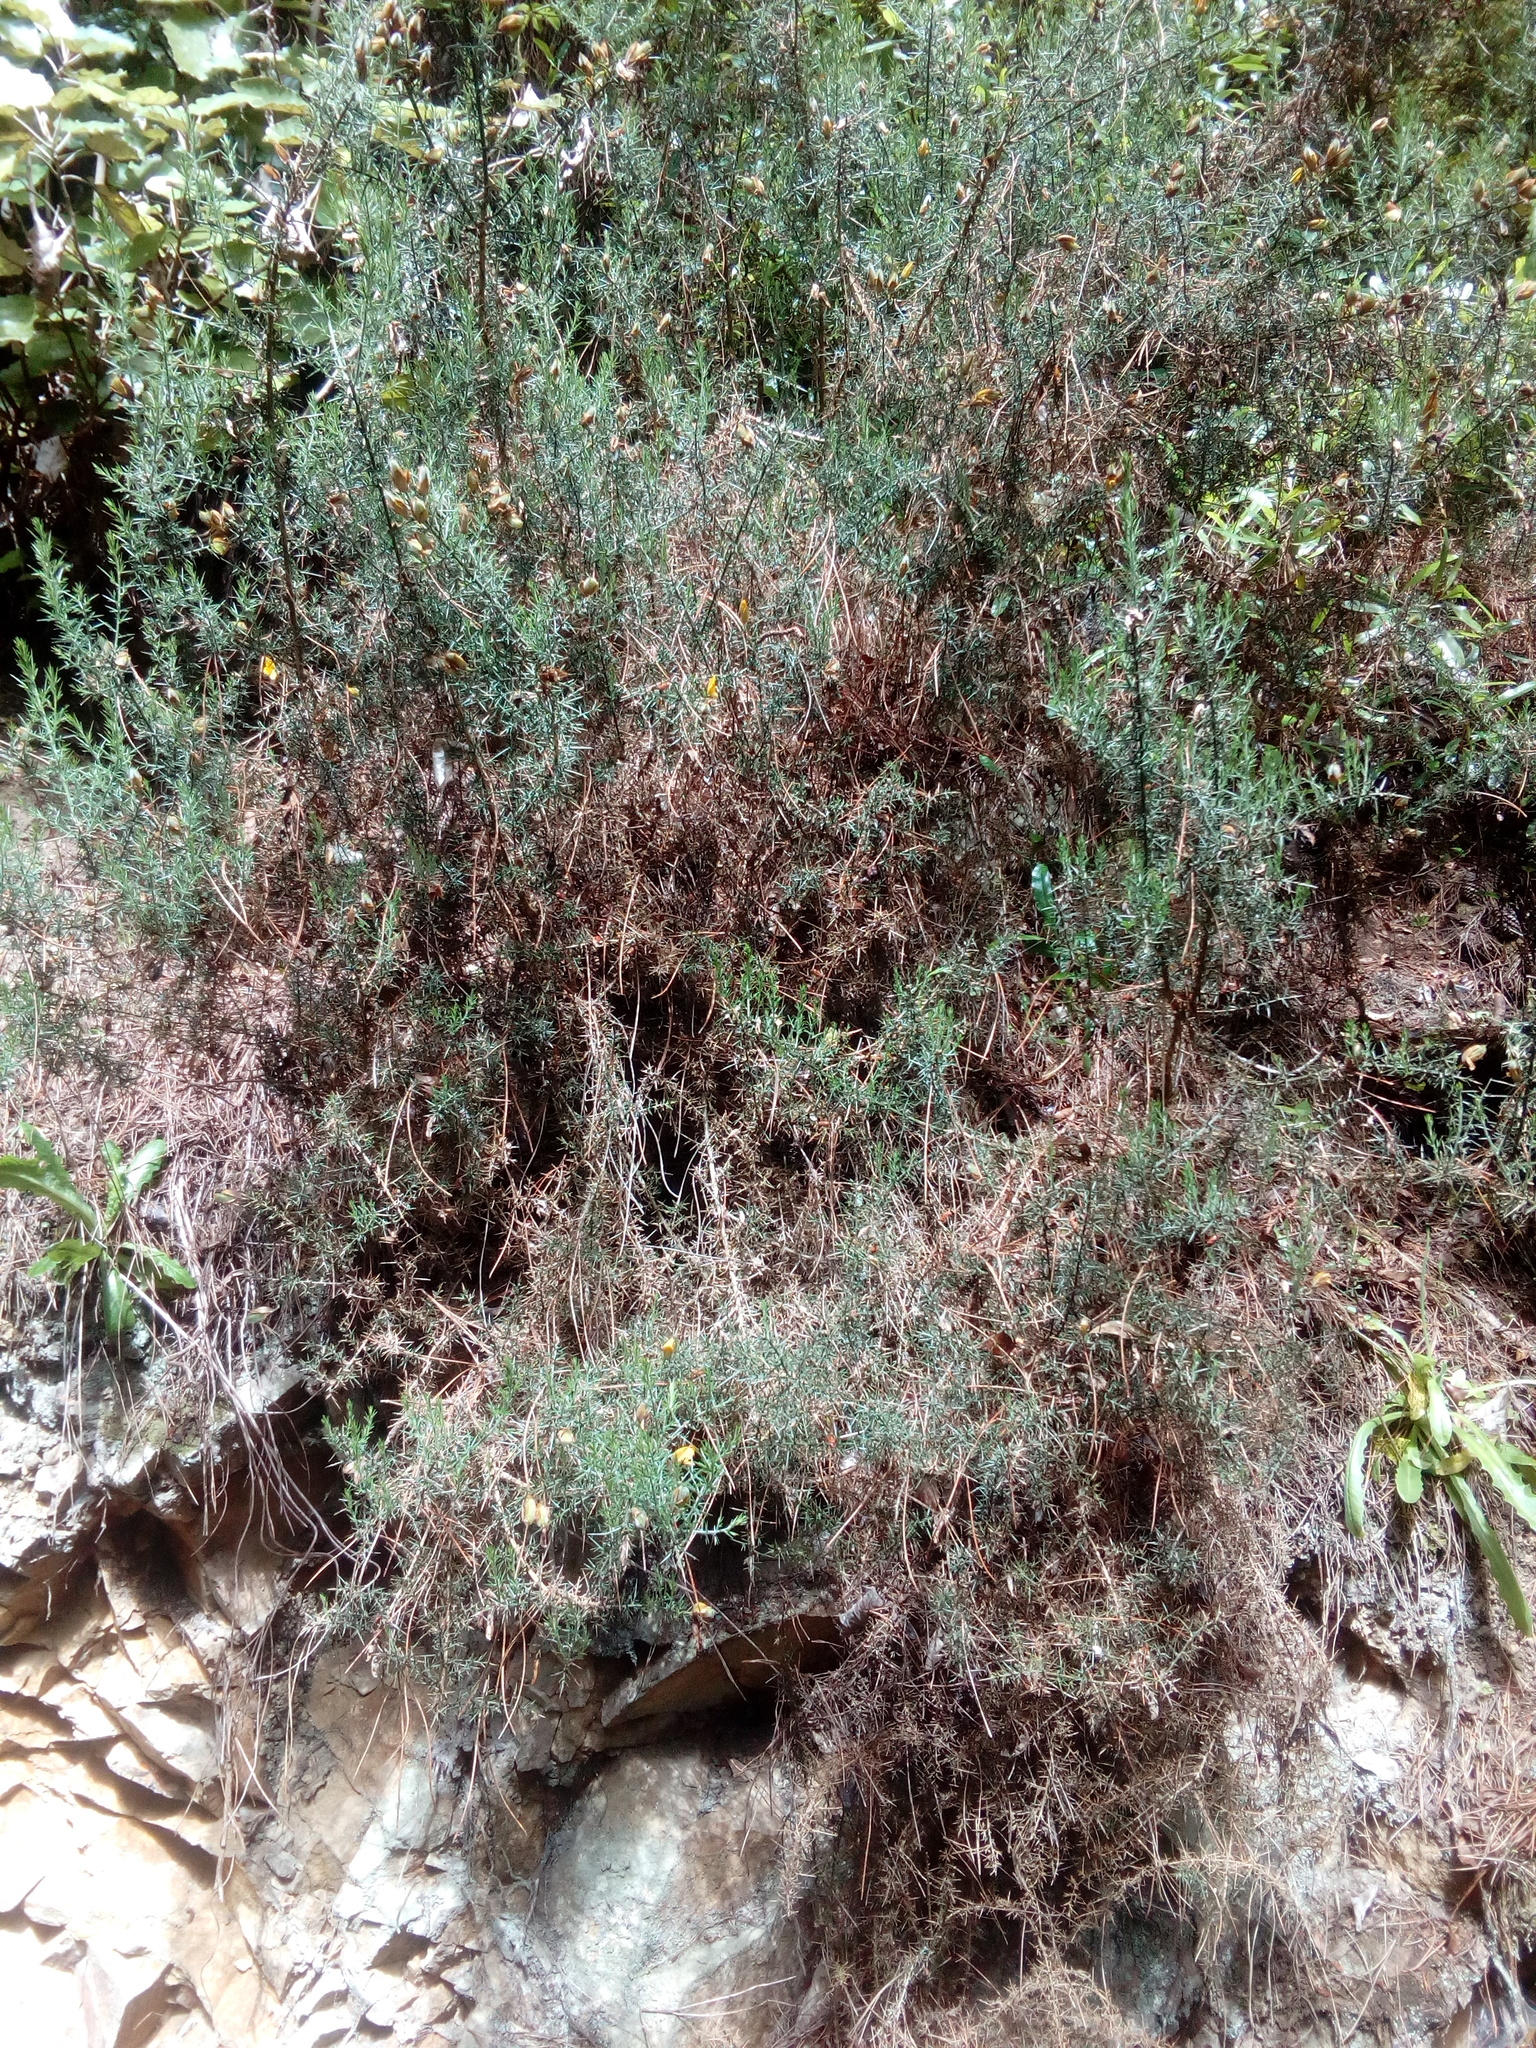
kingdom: Plantae
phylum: Tracheophyta
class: Magnoliopsida
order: Fabales
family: Fabaceae
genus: Ulex
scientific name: Ulex europaeus
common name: Common gorse
